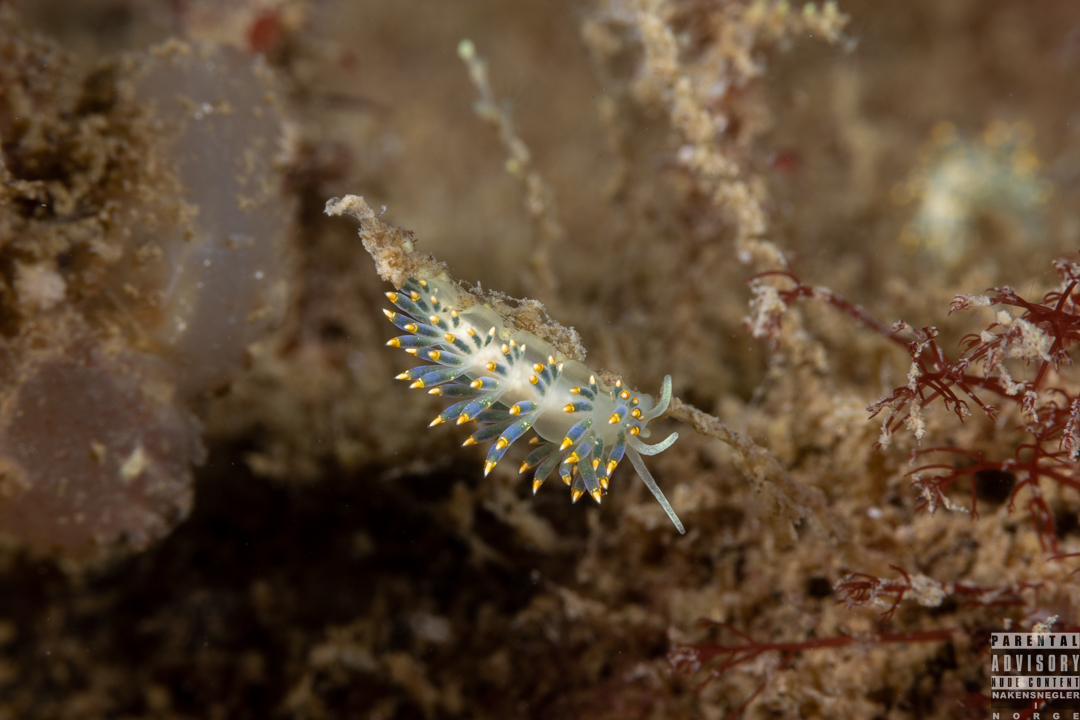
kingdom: Animalia
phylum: Mollusca
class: Gastropoda
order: Nudibranchia
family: Trinchesiidae
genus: Trinchesia
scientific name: Trinchesia cuanensis
